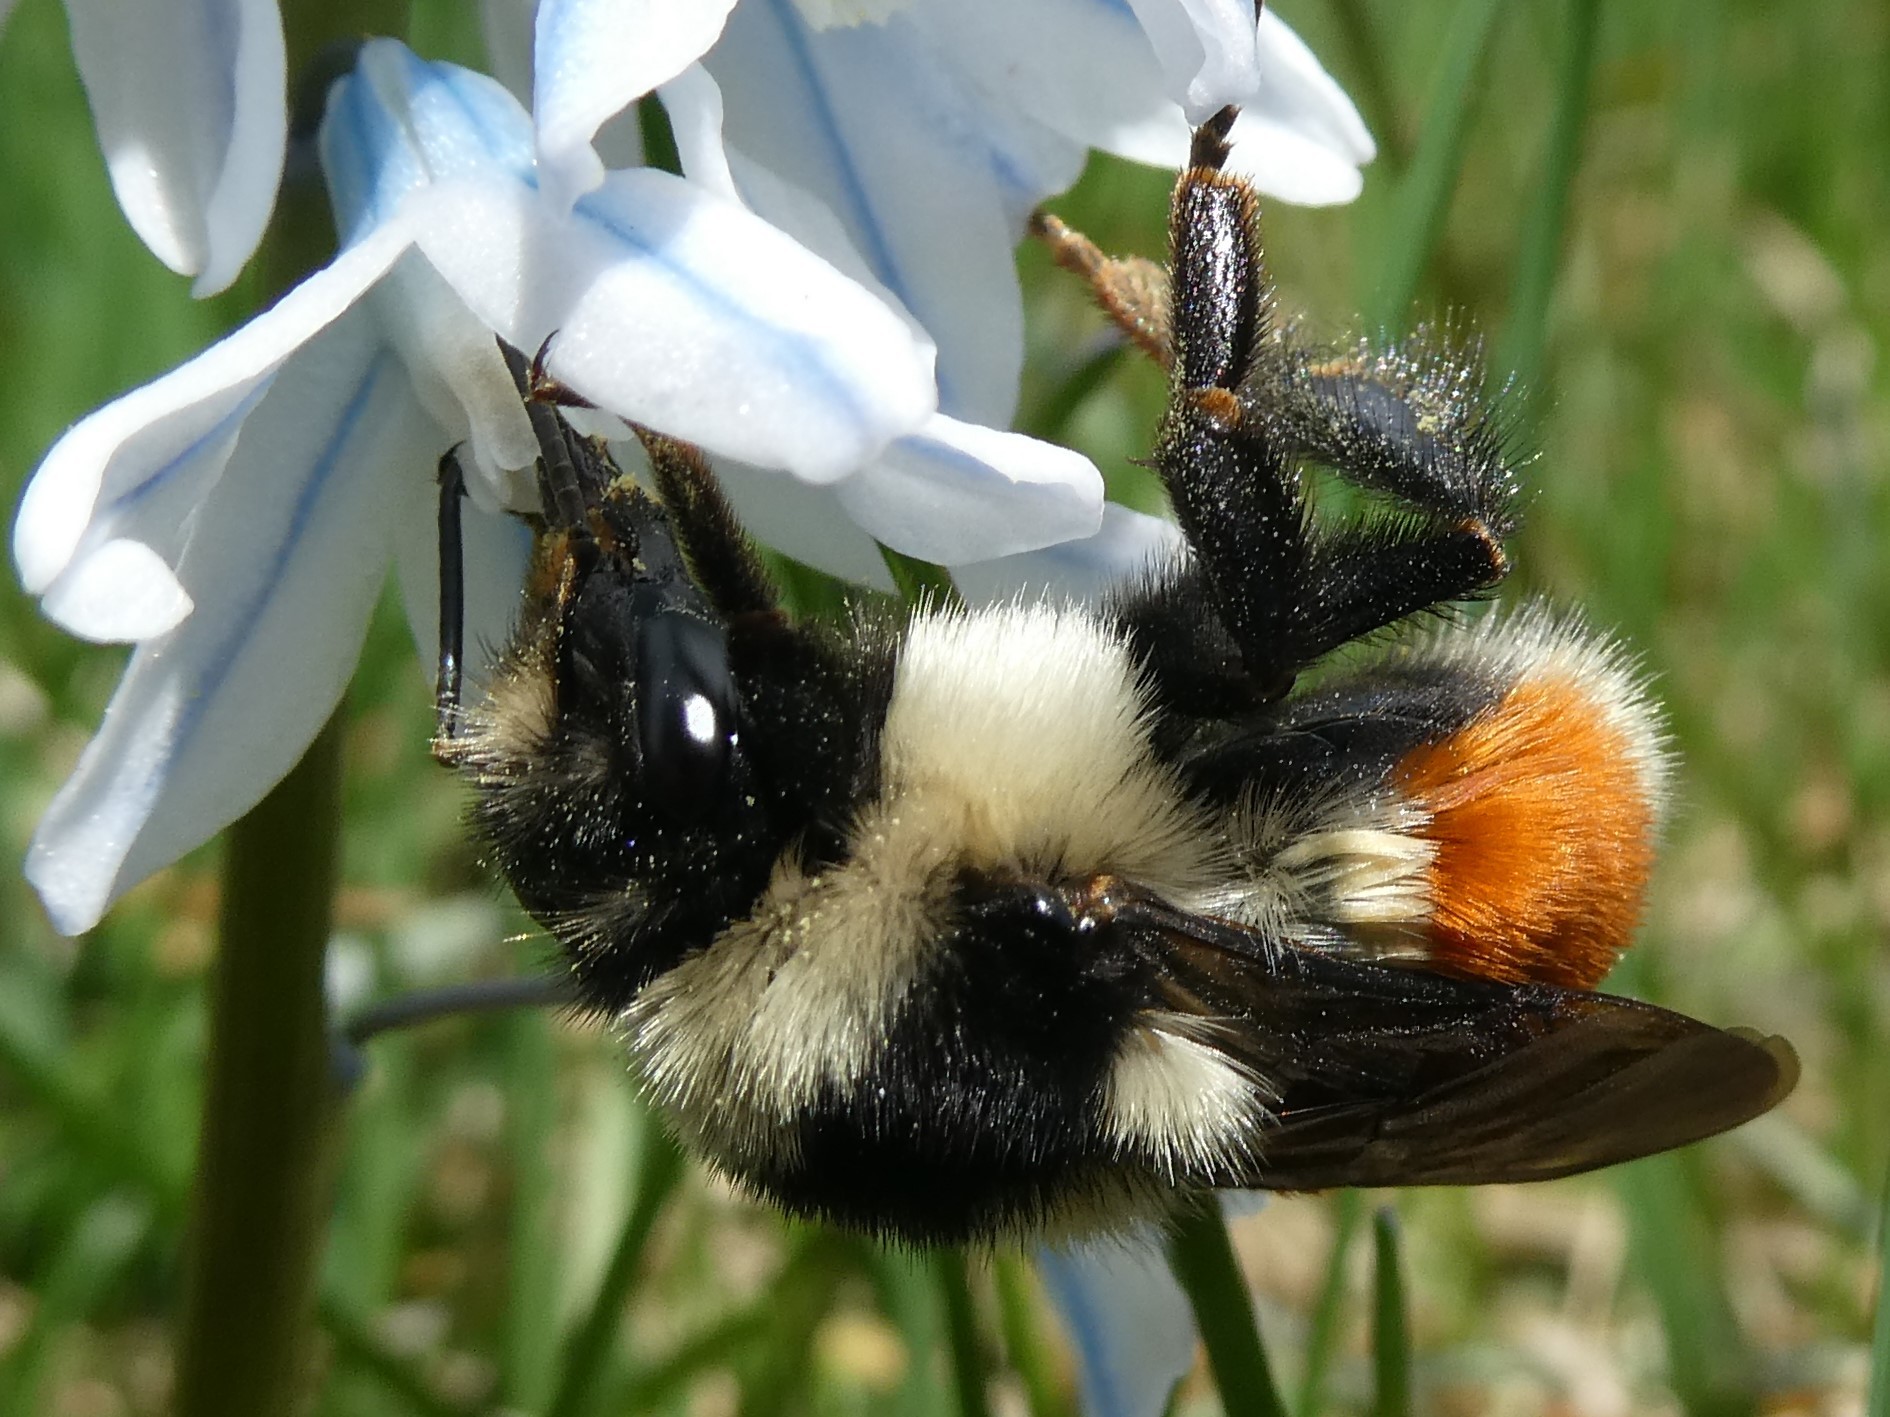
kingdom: Animalia
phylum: Arthropoda
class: Insecta
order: Hymenoptera
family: Apidae
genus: Bombus
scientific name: Bombus ternarius
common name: Tri-colored bumble bee
